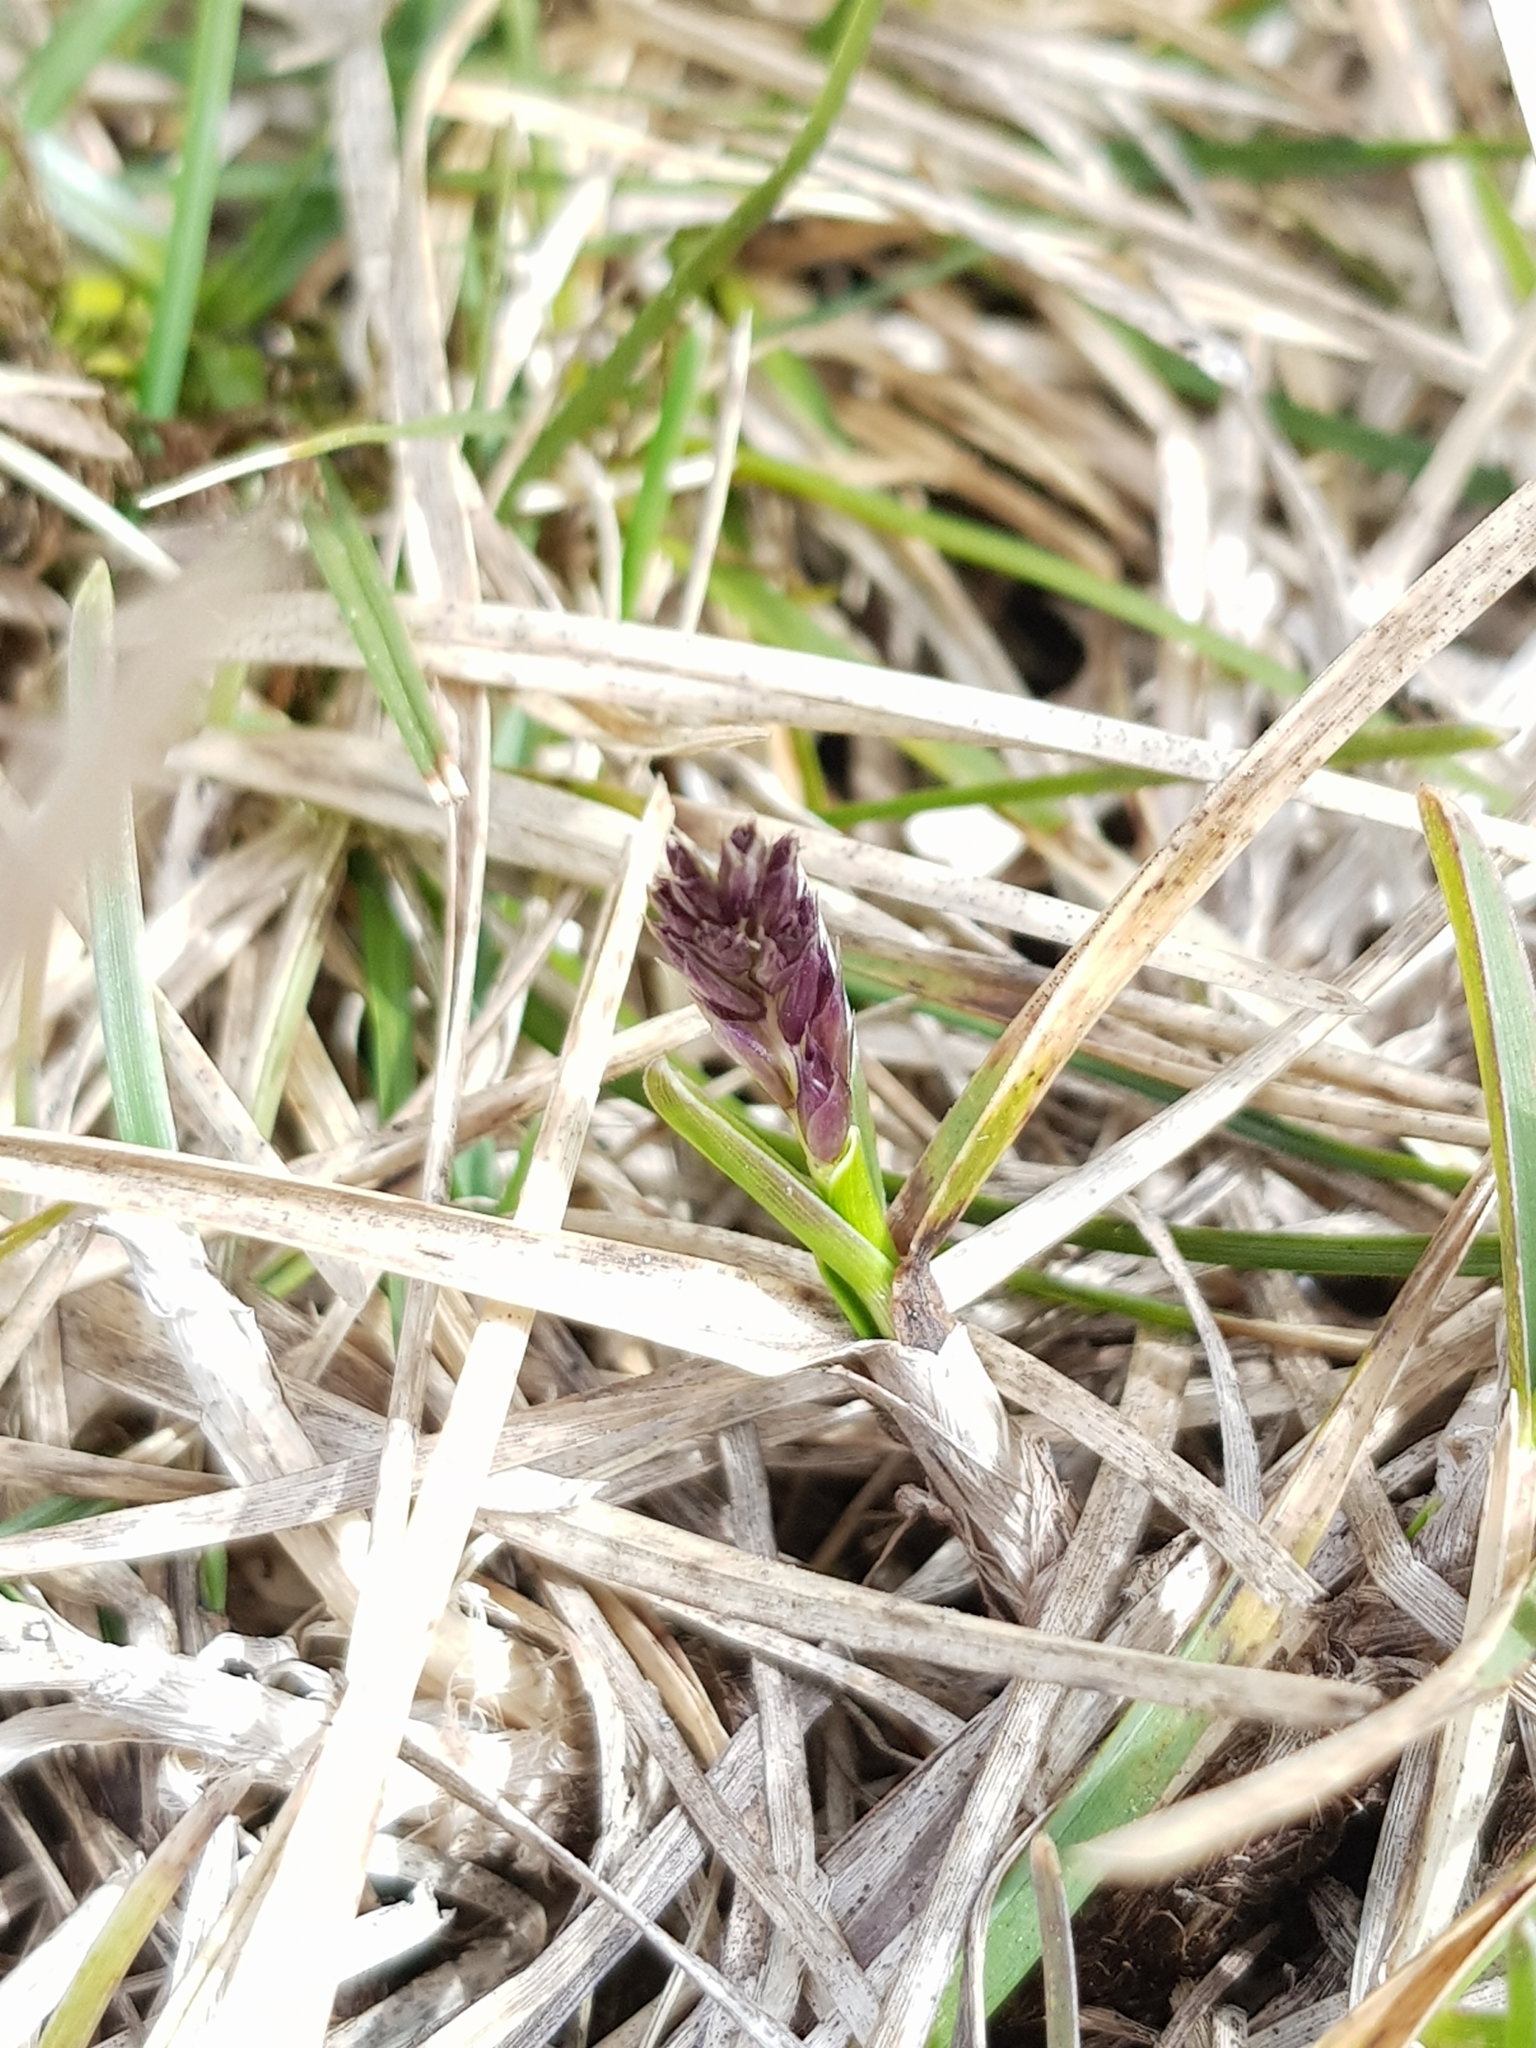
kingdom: Plantae
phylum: Tracheophyta
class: Liliopsida
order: Poales
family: Poaceae
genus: Sesleria
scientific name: Sesleria caerulea
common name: Blue moor-grass
